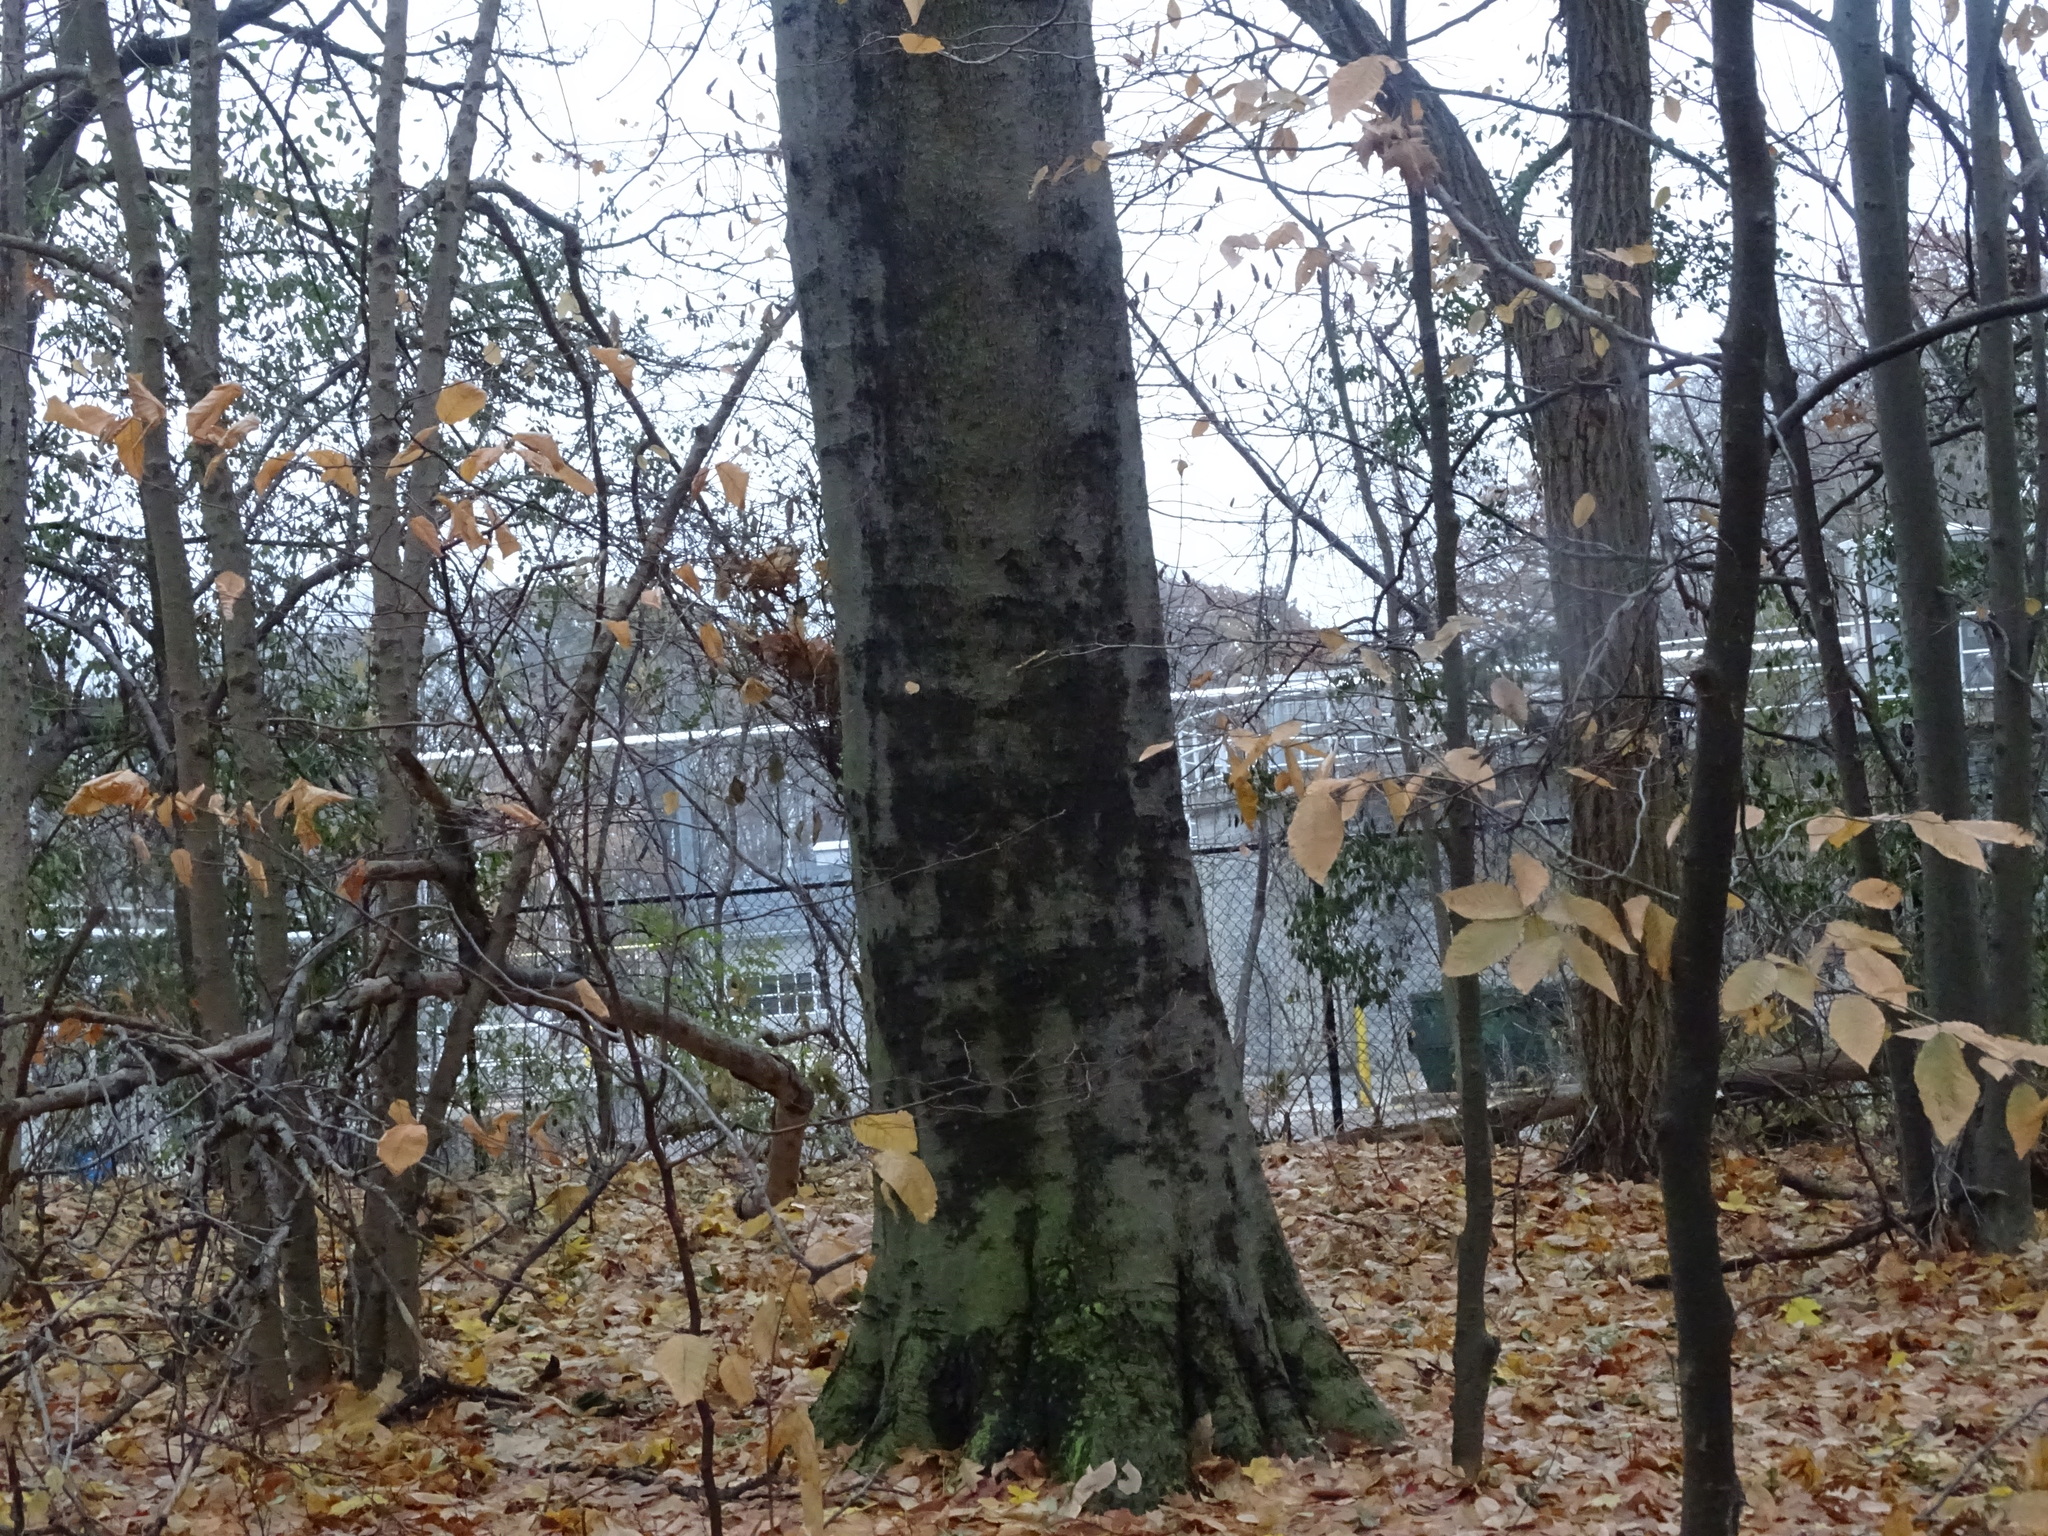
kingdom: Plantae
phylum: Tracheophyta
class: Magnoliopsida
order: Fagales
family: Fagaceae
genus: Fagus
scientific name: Fagus grandifolia
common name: American beech
